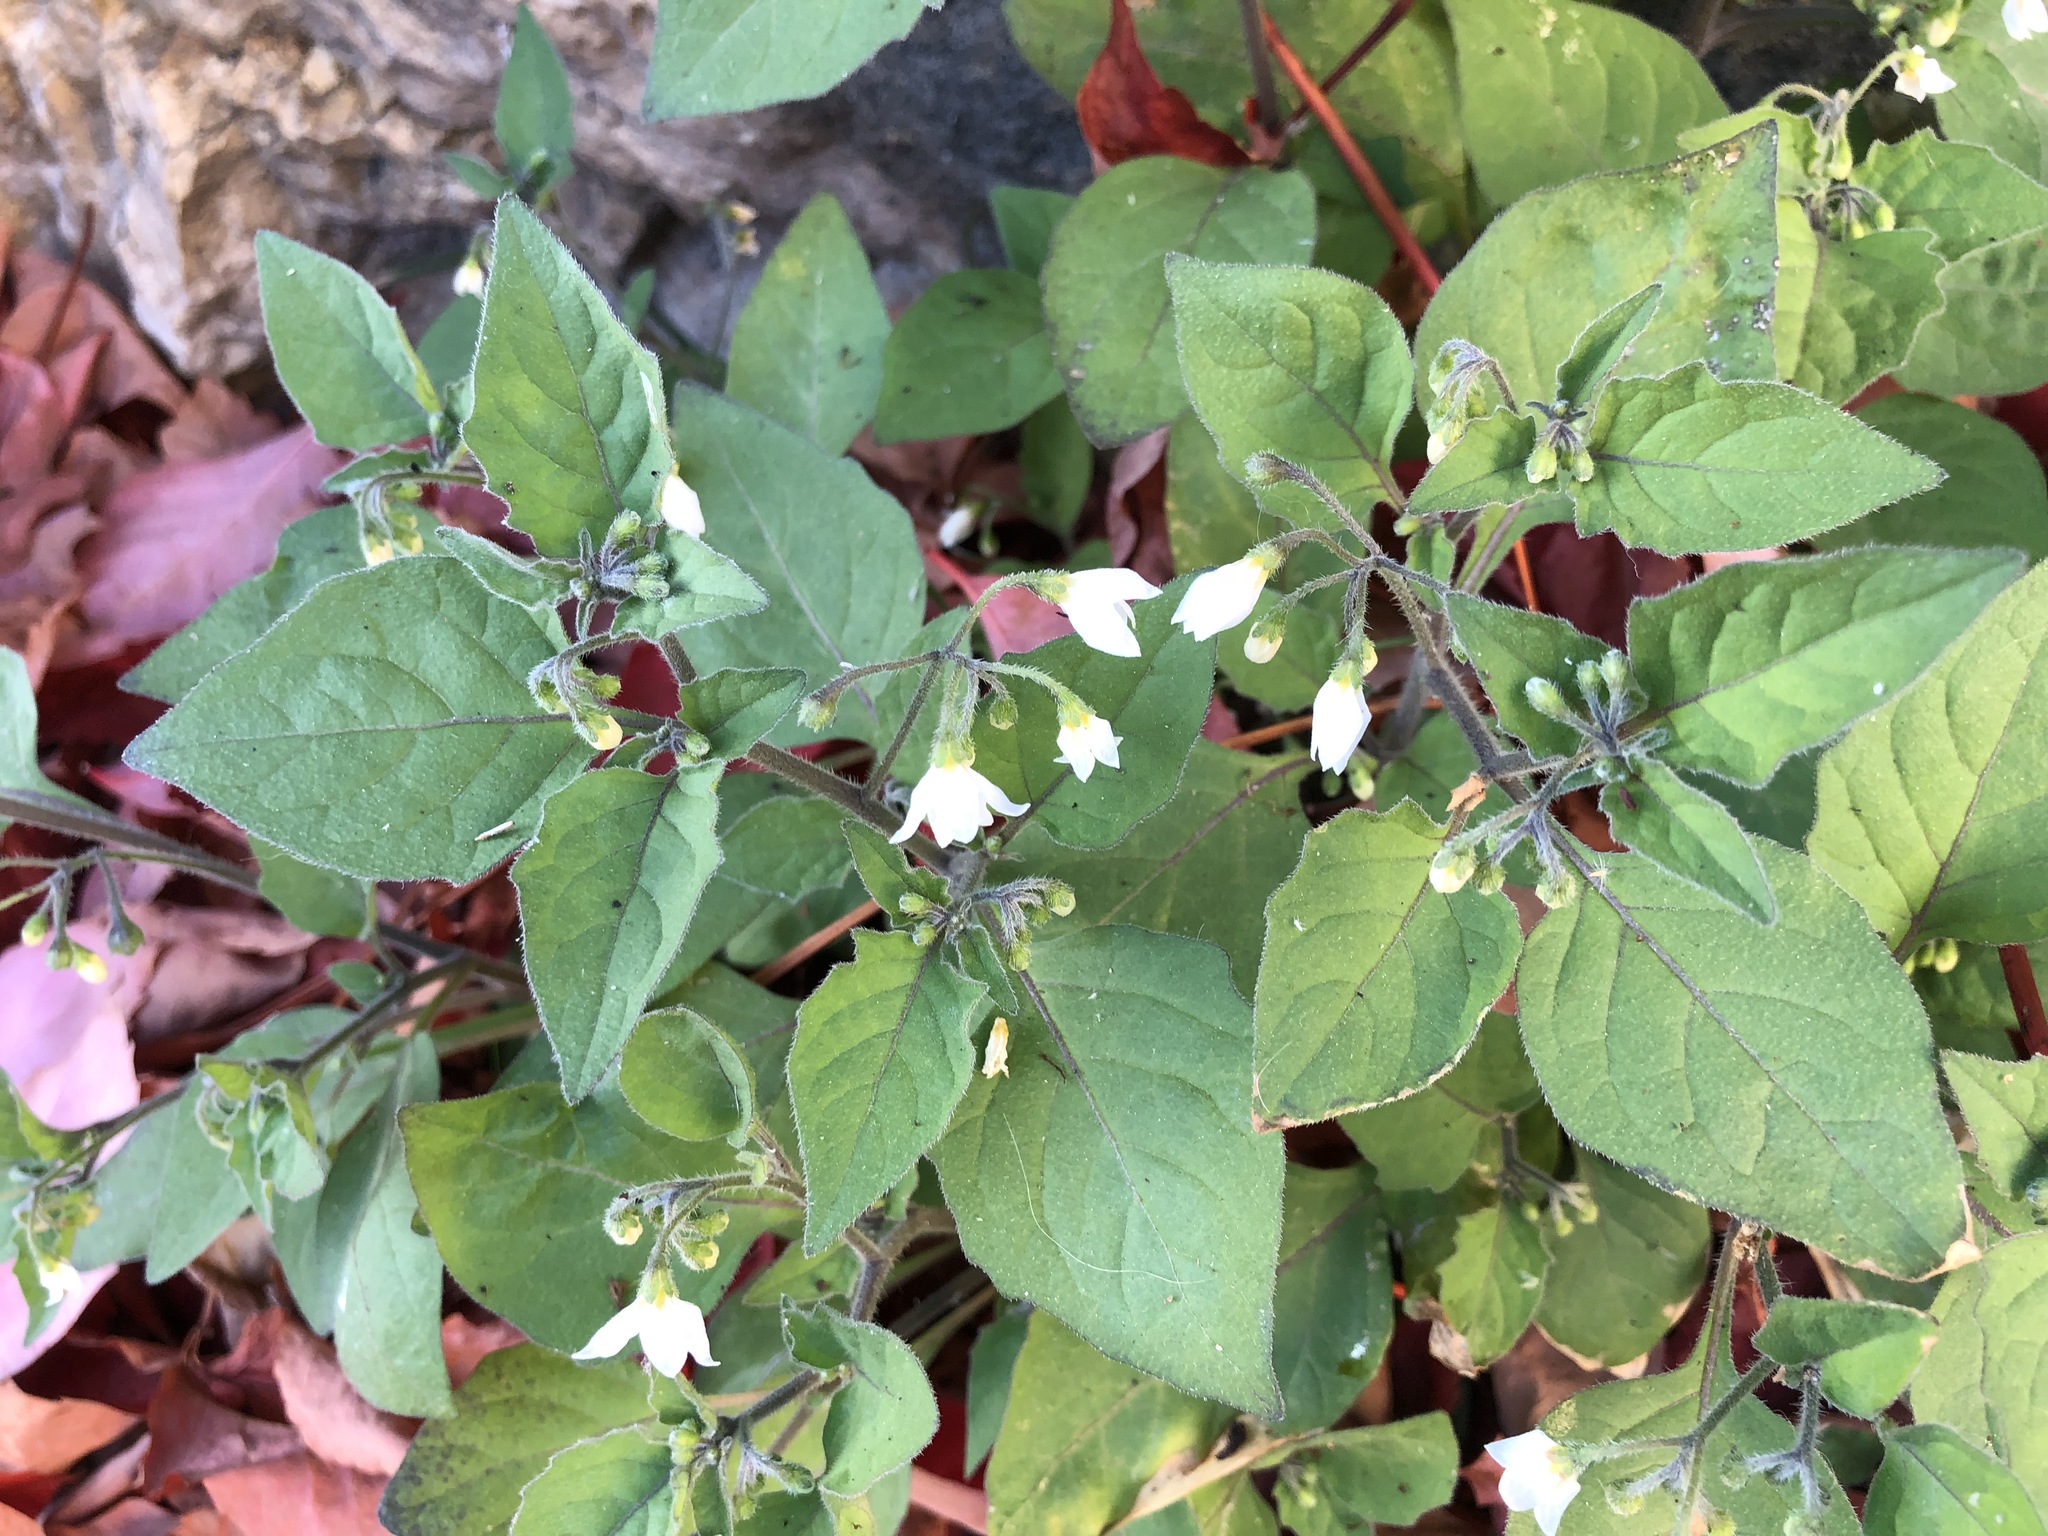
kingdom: Plantae
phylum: Tracheophyta
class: Magnoliopsida
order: Solanales
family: Solanaceae
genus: Solanum
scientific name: Solanum nigrum
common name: Black nightshade
